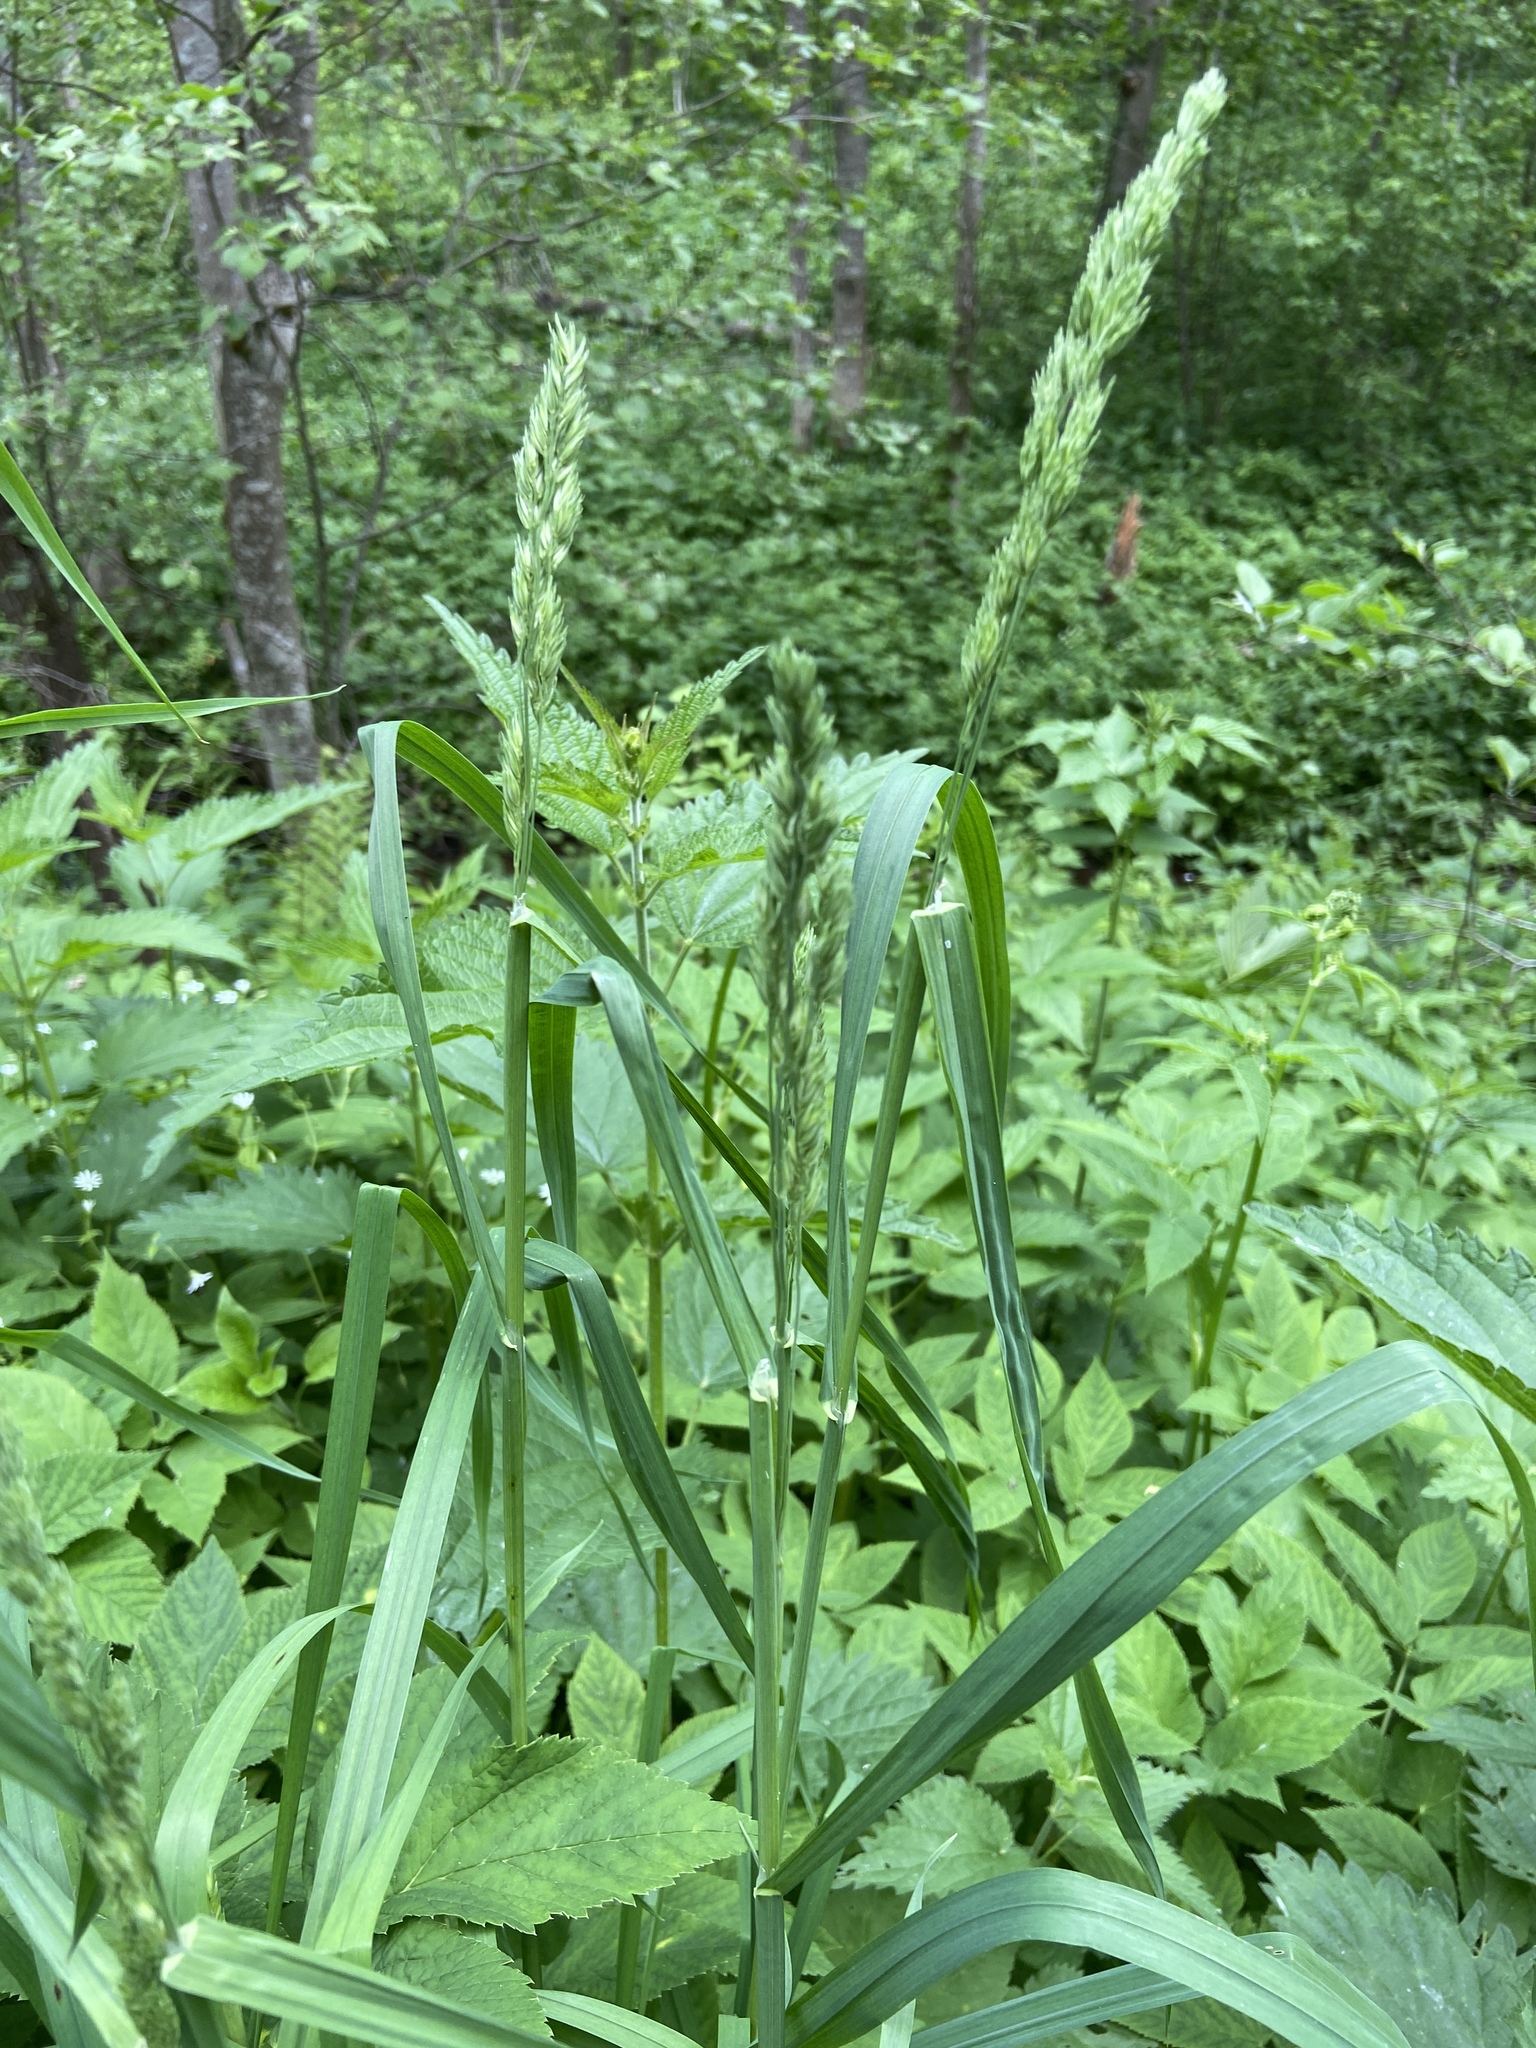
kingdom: Plantae
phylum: Tracheophyta
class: Liliopsida
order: Poales
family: Poaceae
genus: Dactylis
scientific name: Dactylis glomerata
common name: Orchardgrass
